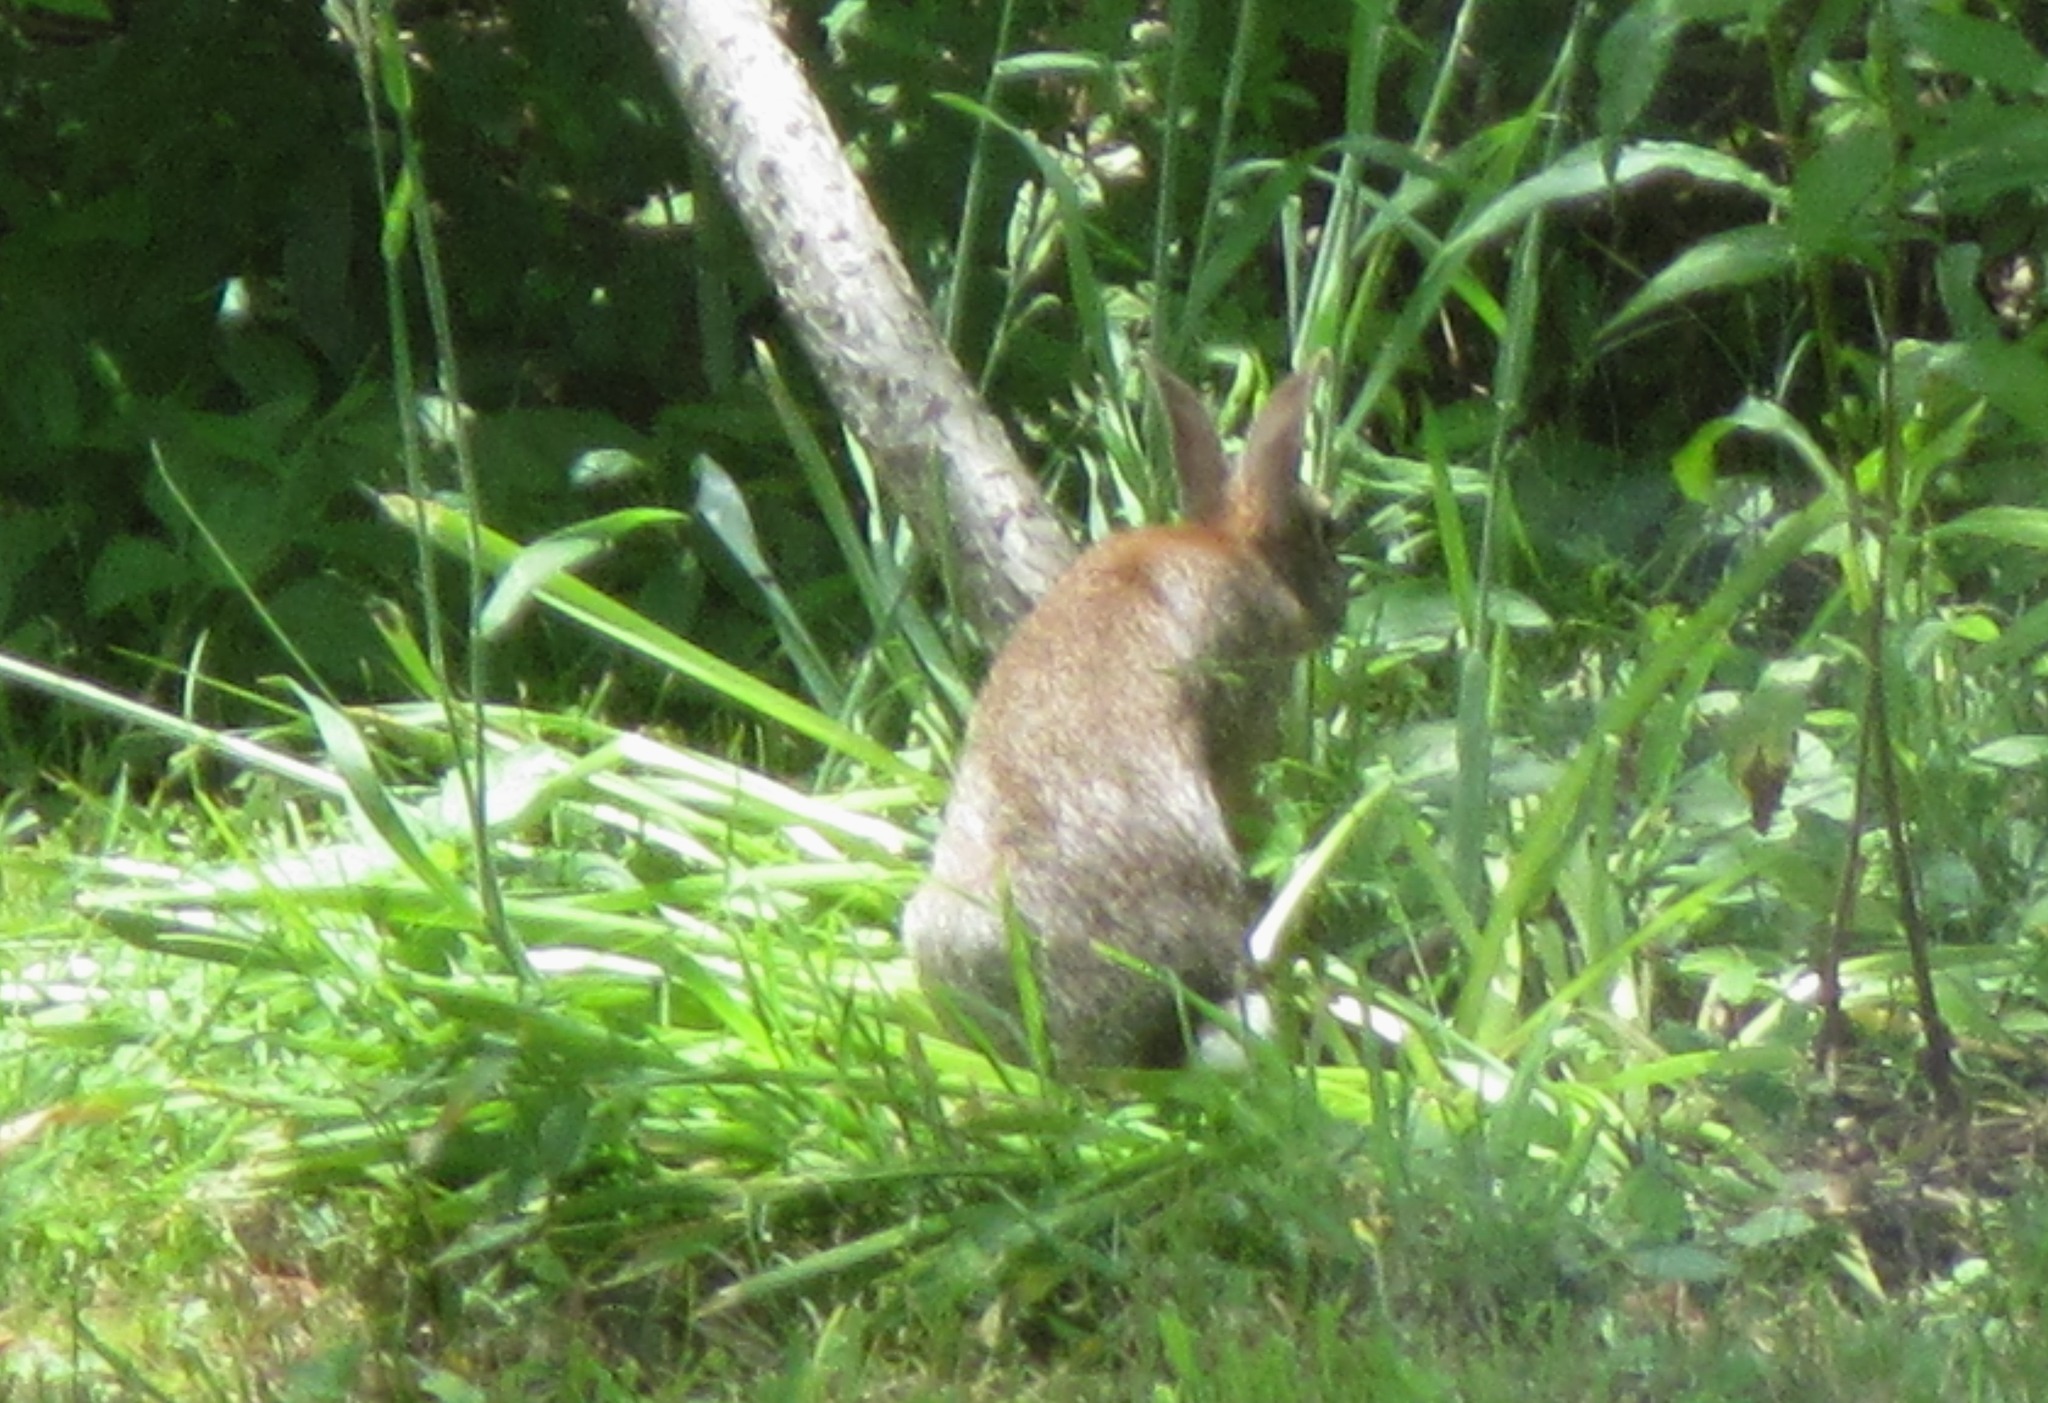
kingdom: Animalia
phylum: Chordata
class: Mammalia
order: Lagomorpha
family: Leporidae
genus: Sylvilagus
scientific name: Sylvilagus floridanus
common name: Eastern cottontail
